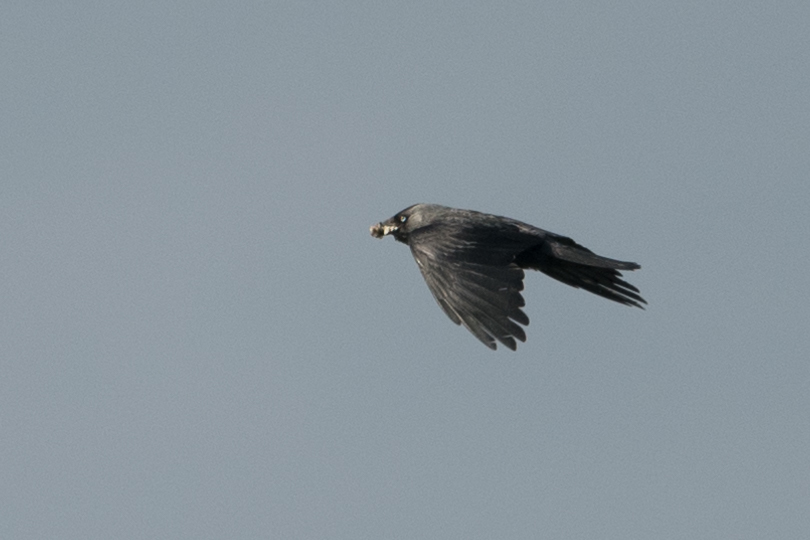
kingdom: Animalia
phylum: Chordata
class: Aves
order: Passeriformes
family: Corvidae
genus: Coloeus
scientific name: Coloeus monedula
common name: Western jackdaw
